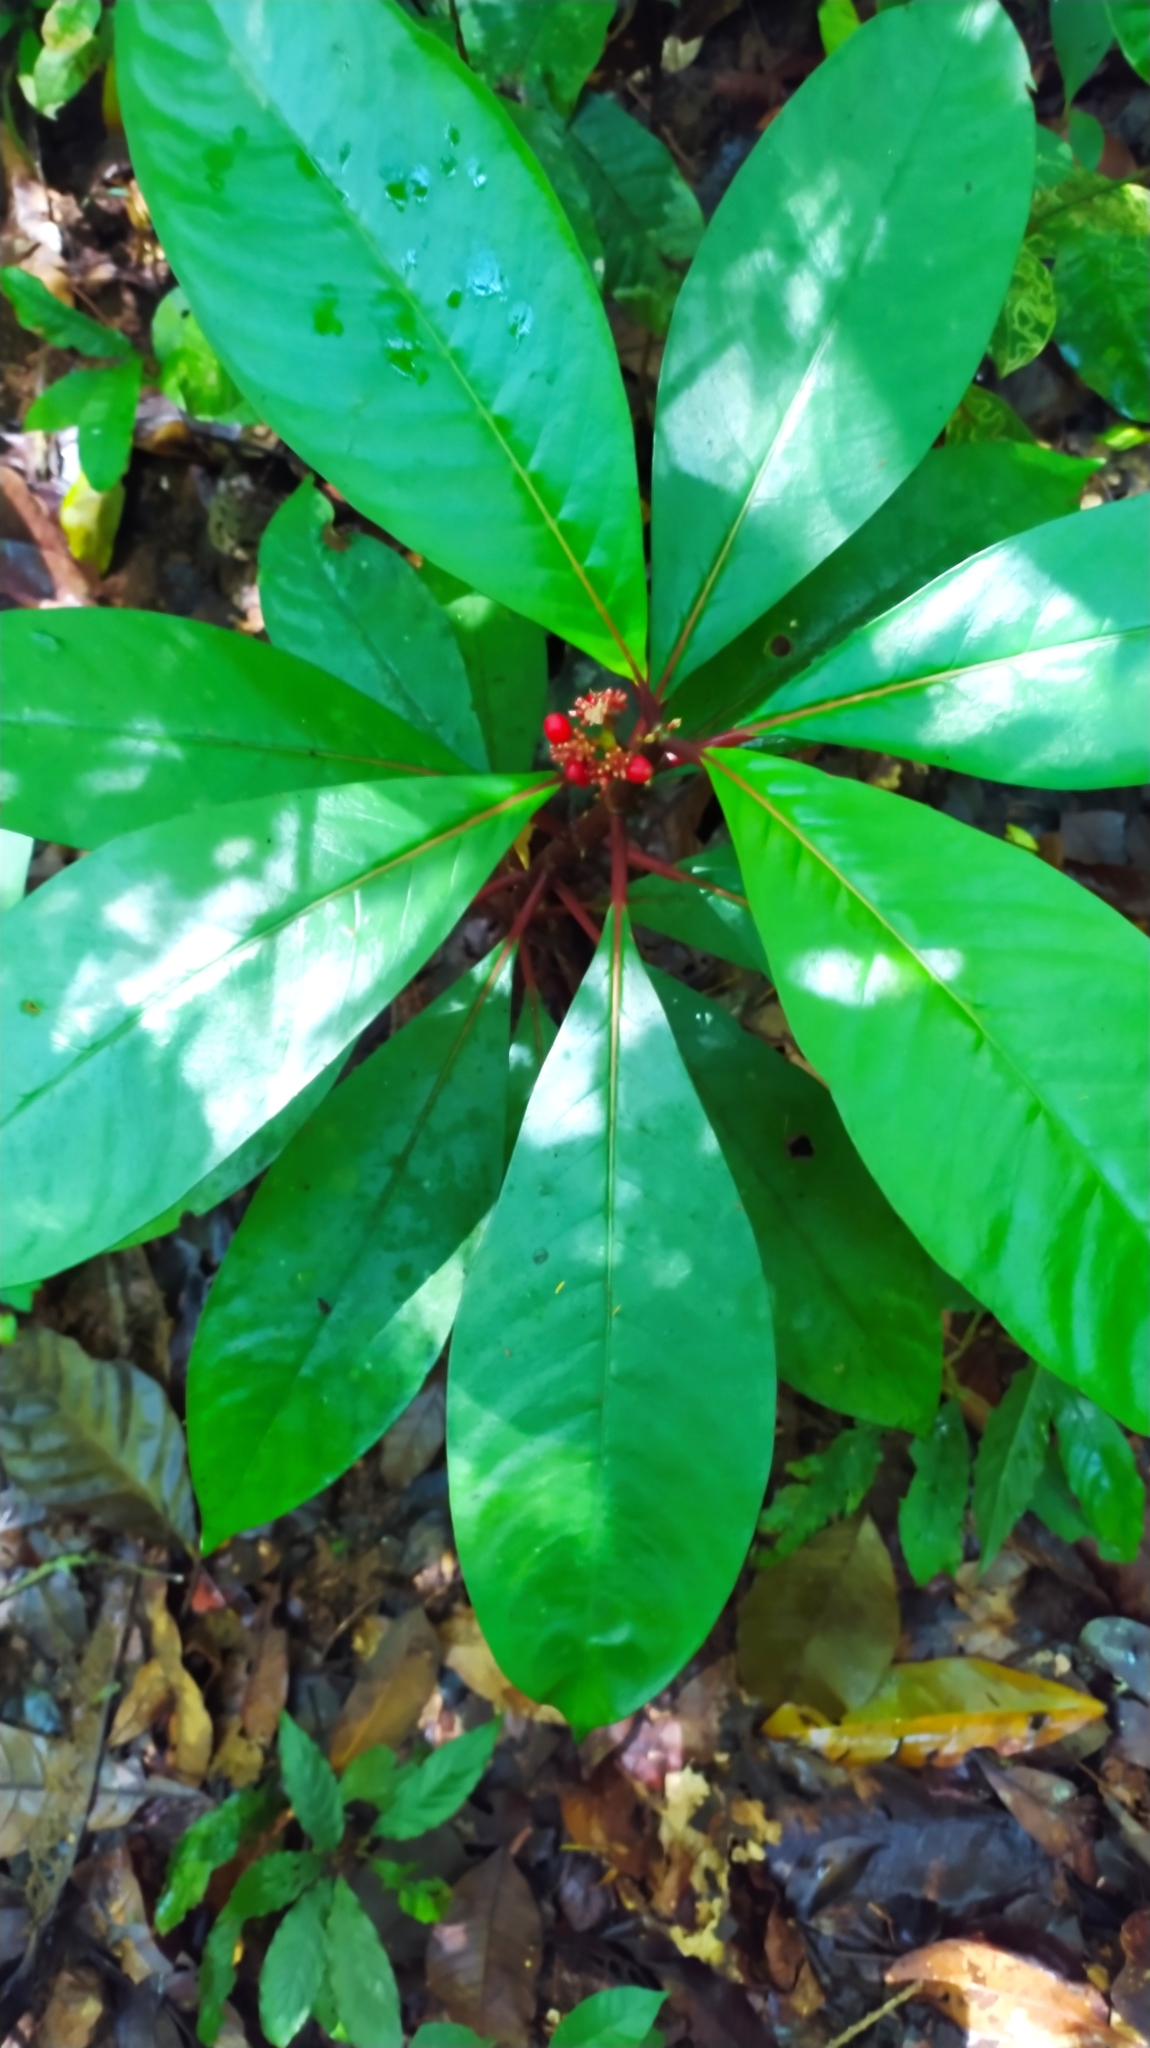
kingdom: Plantae
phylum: Tracheophyta
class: Magnoliopsida
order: Gentianales
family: Rubiaceae
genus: Notopleura
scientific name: Notopleura uliginosa
